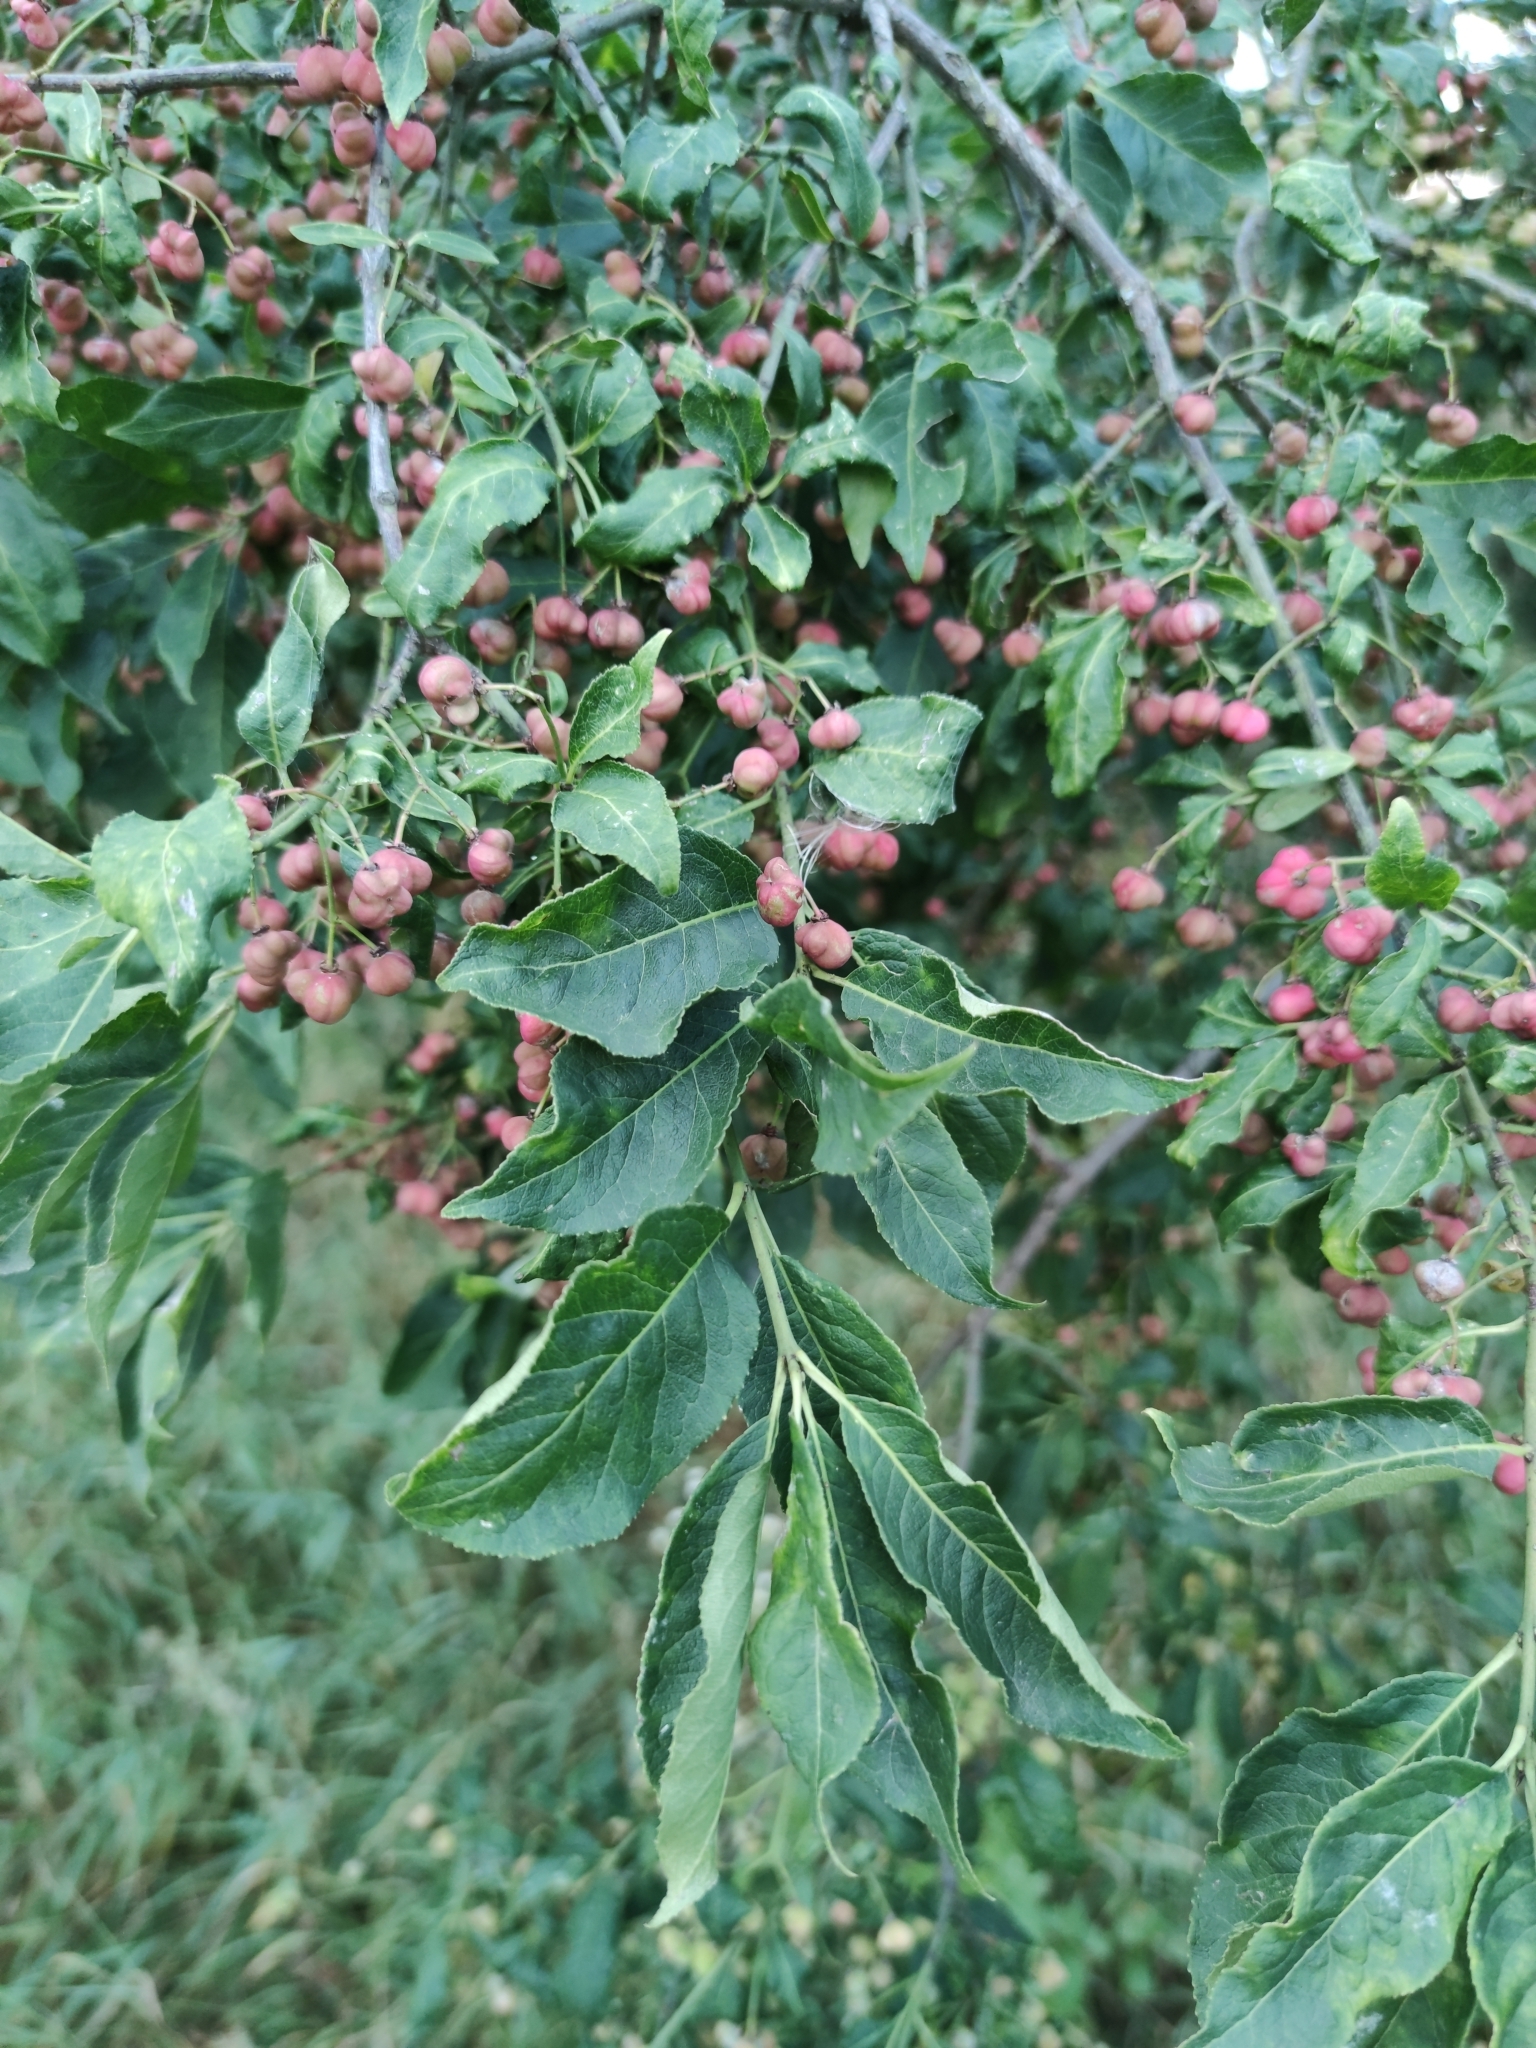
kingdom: Plantae
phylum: Tracheophyta
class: Magnoliopsida
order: Celastrales
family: Celastraceae
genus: Euonymus
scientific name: Euonymus europaeus
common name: Spindle
